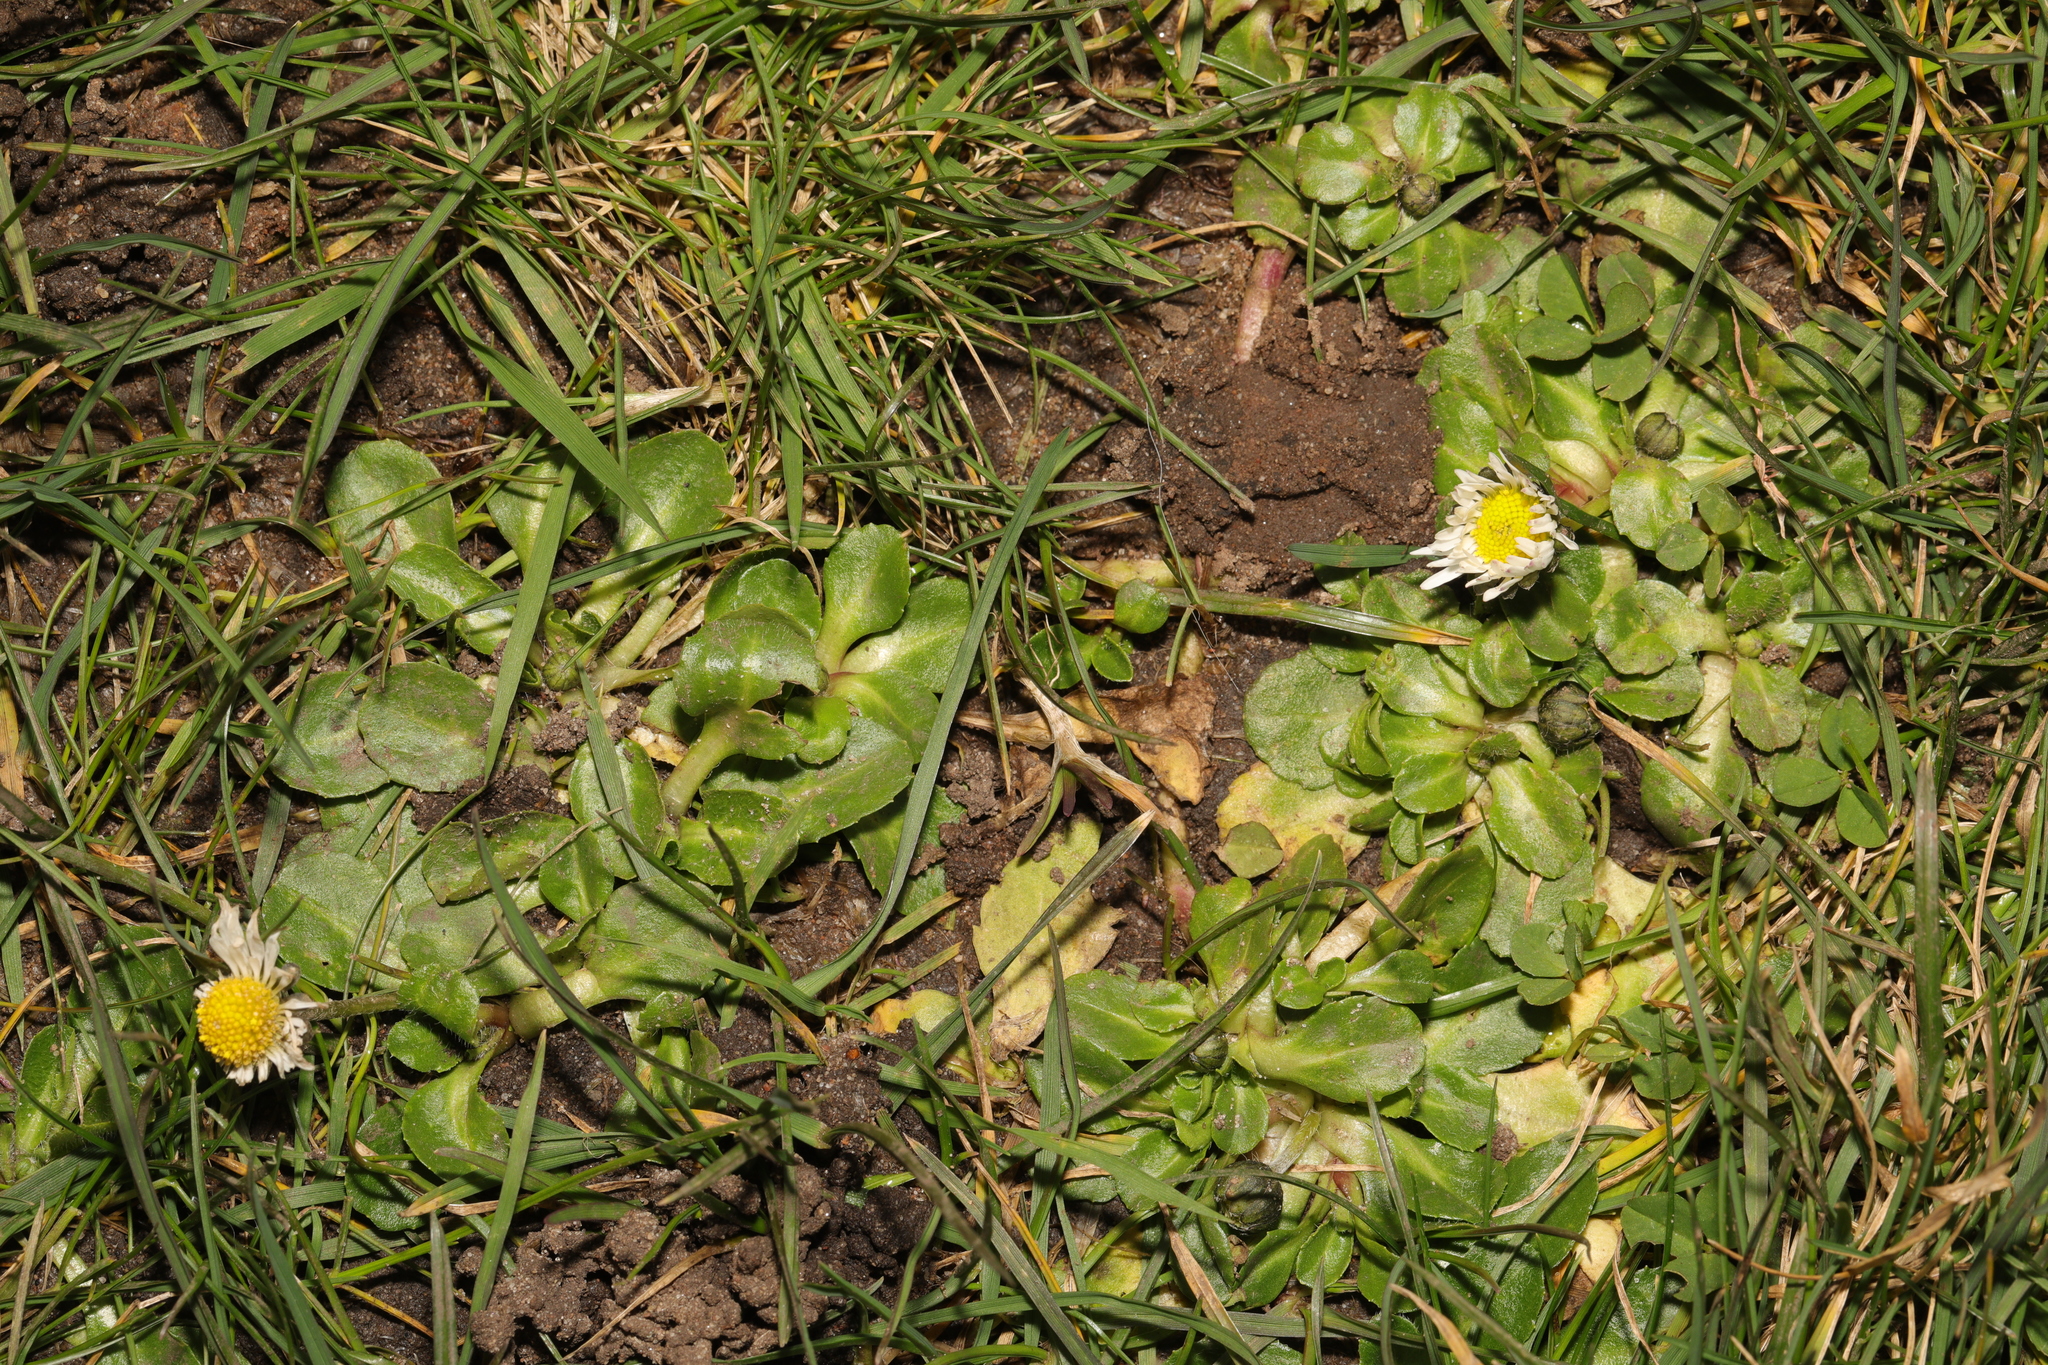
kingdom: Plantae
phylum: Tracheophyta
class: Magnoliopsida
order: Asterales
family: Asteraceae
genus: Bellis
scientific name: Bellis perennis
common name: Lawndaisy
